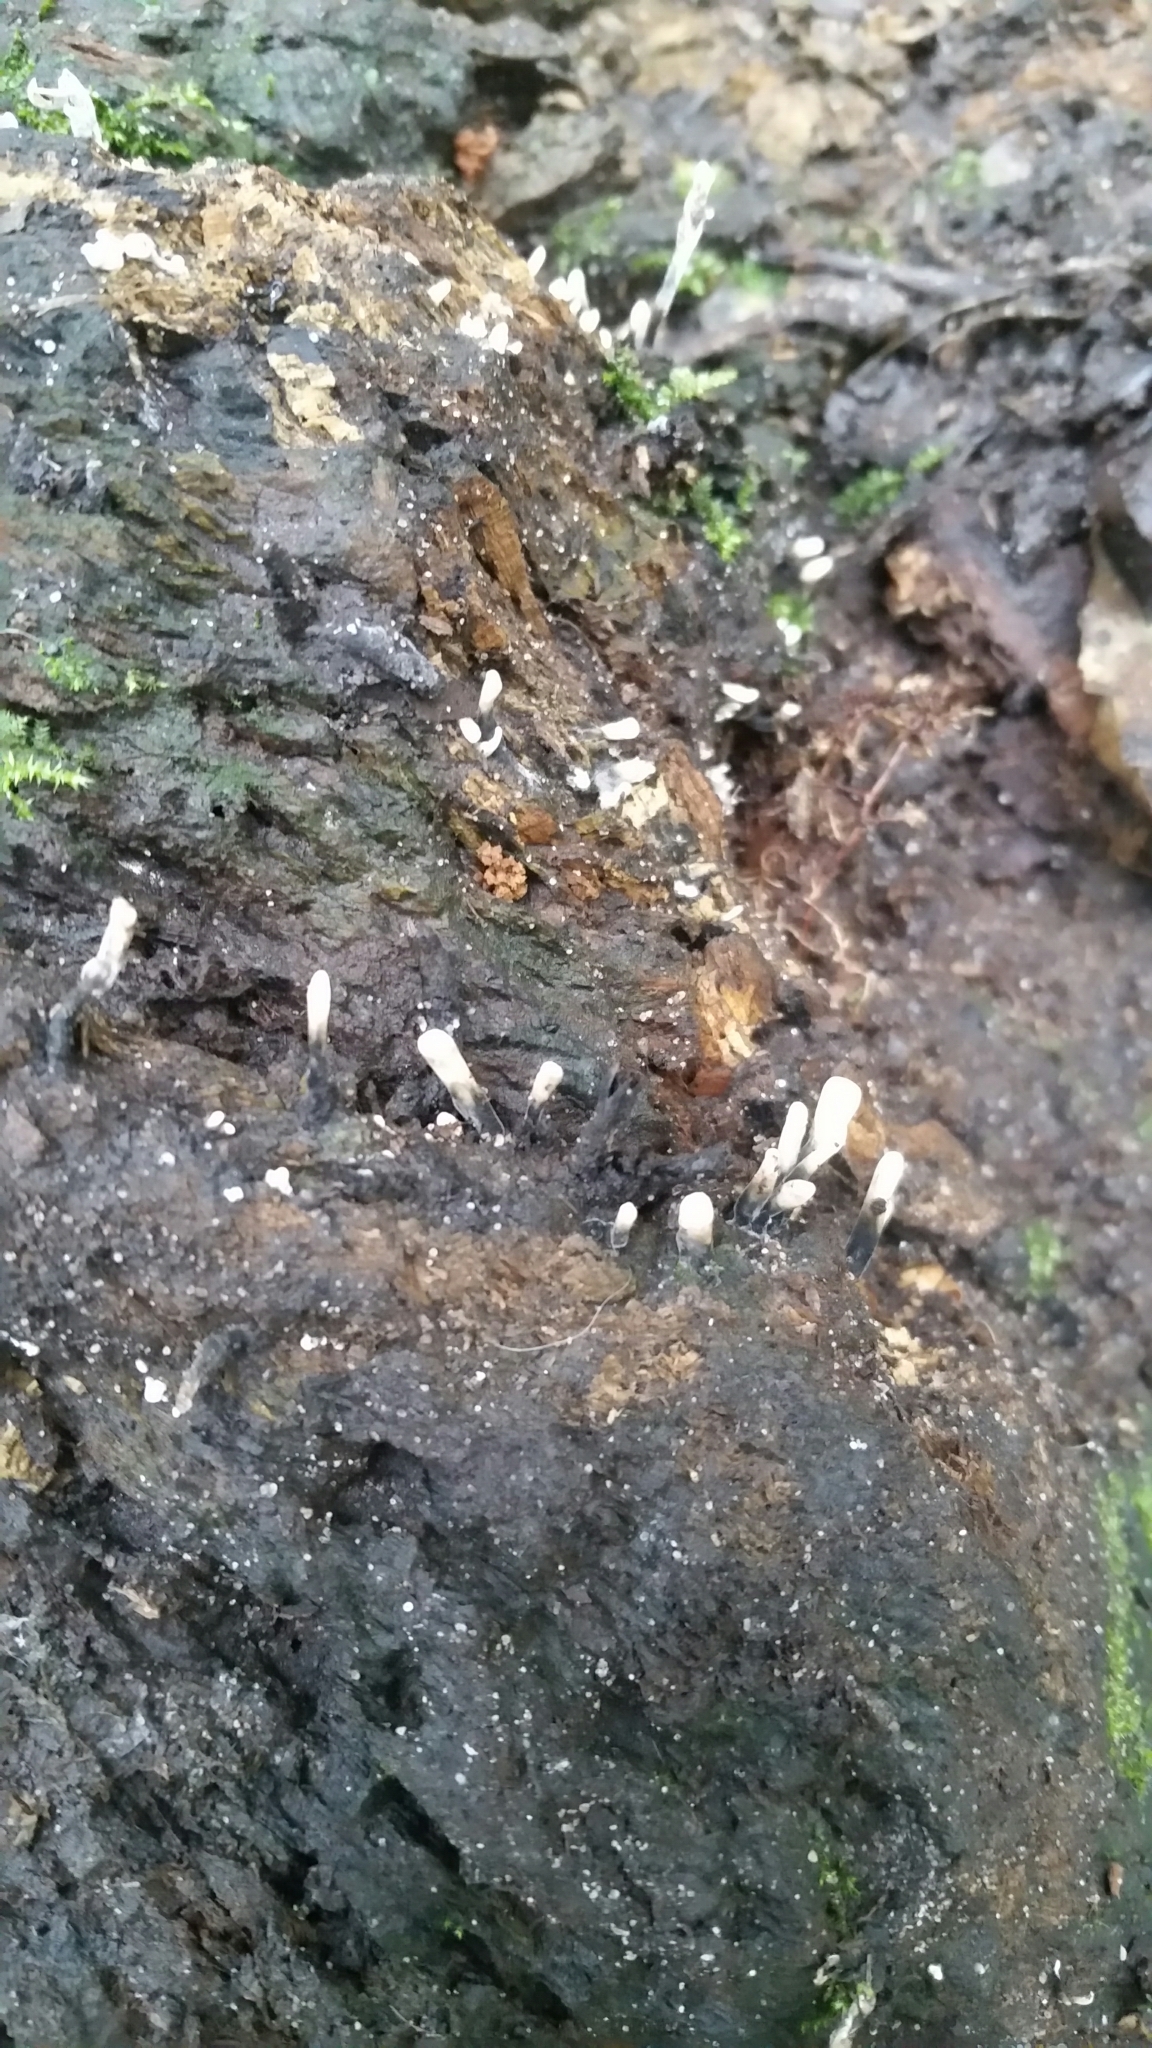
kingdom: Fungi
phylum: Ascomycota
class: Sordariomycetes
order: Xylariales
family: Xylariaceae
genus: Xylaria
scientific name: Xylaria hypoxylon
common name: Candle-snuff fungus
